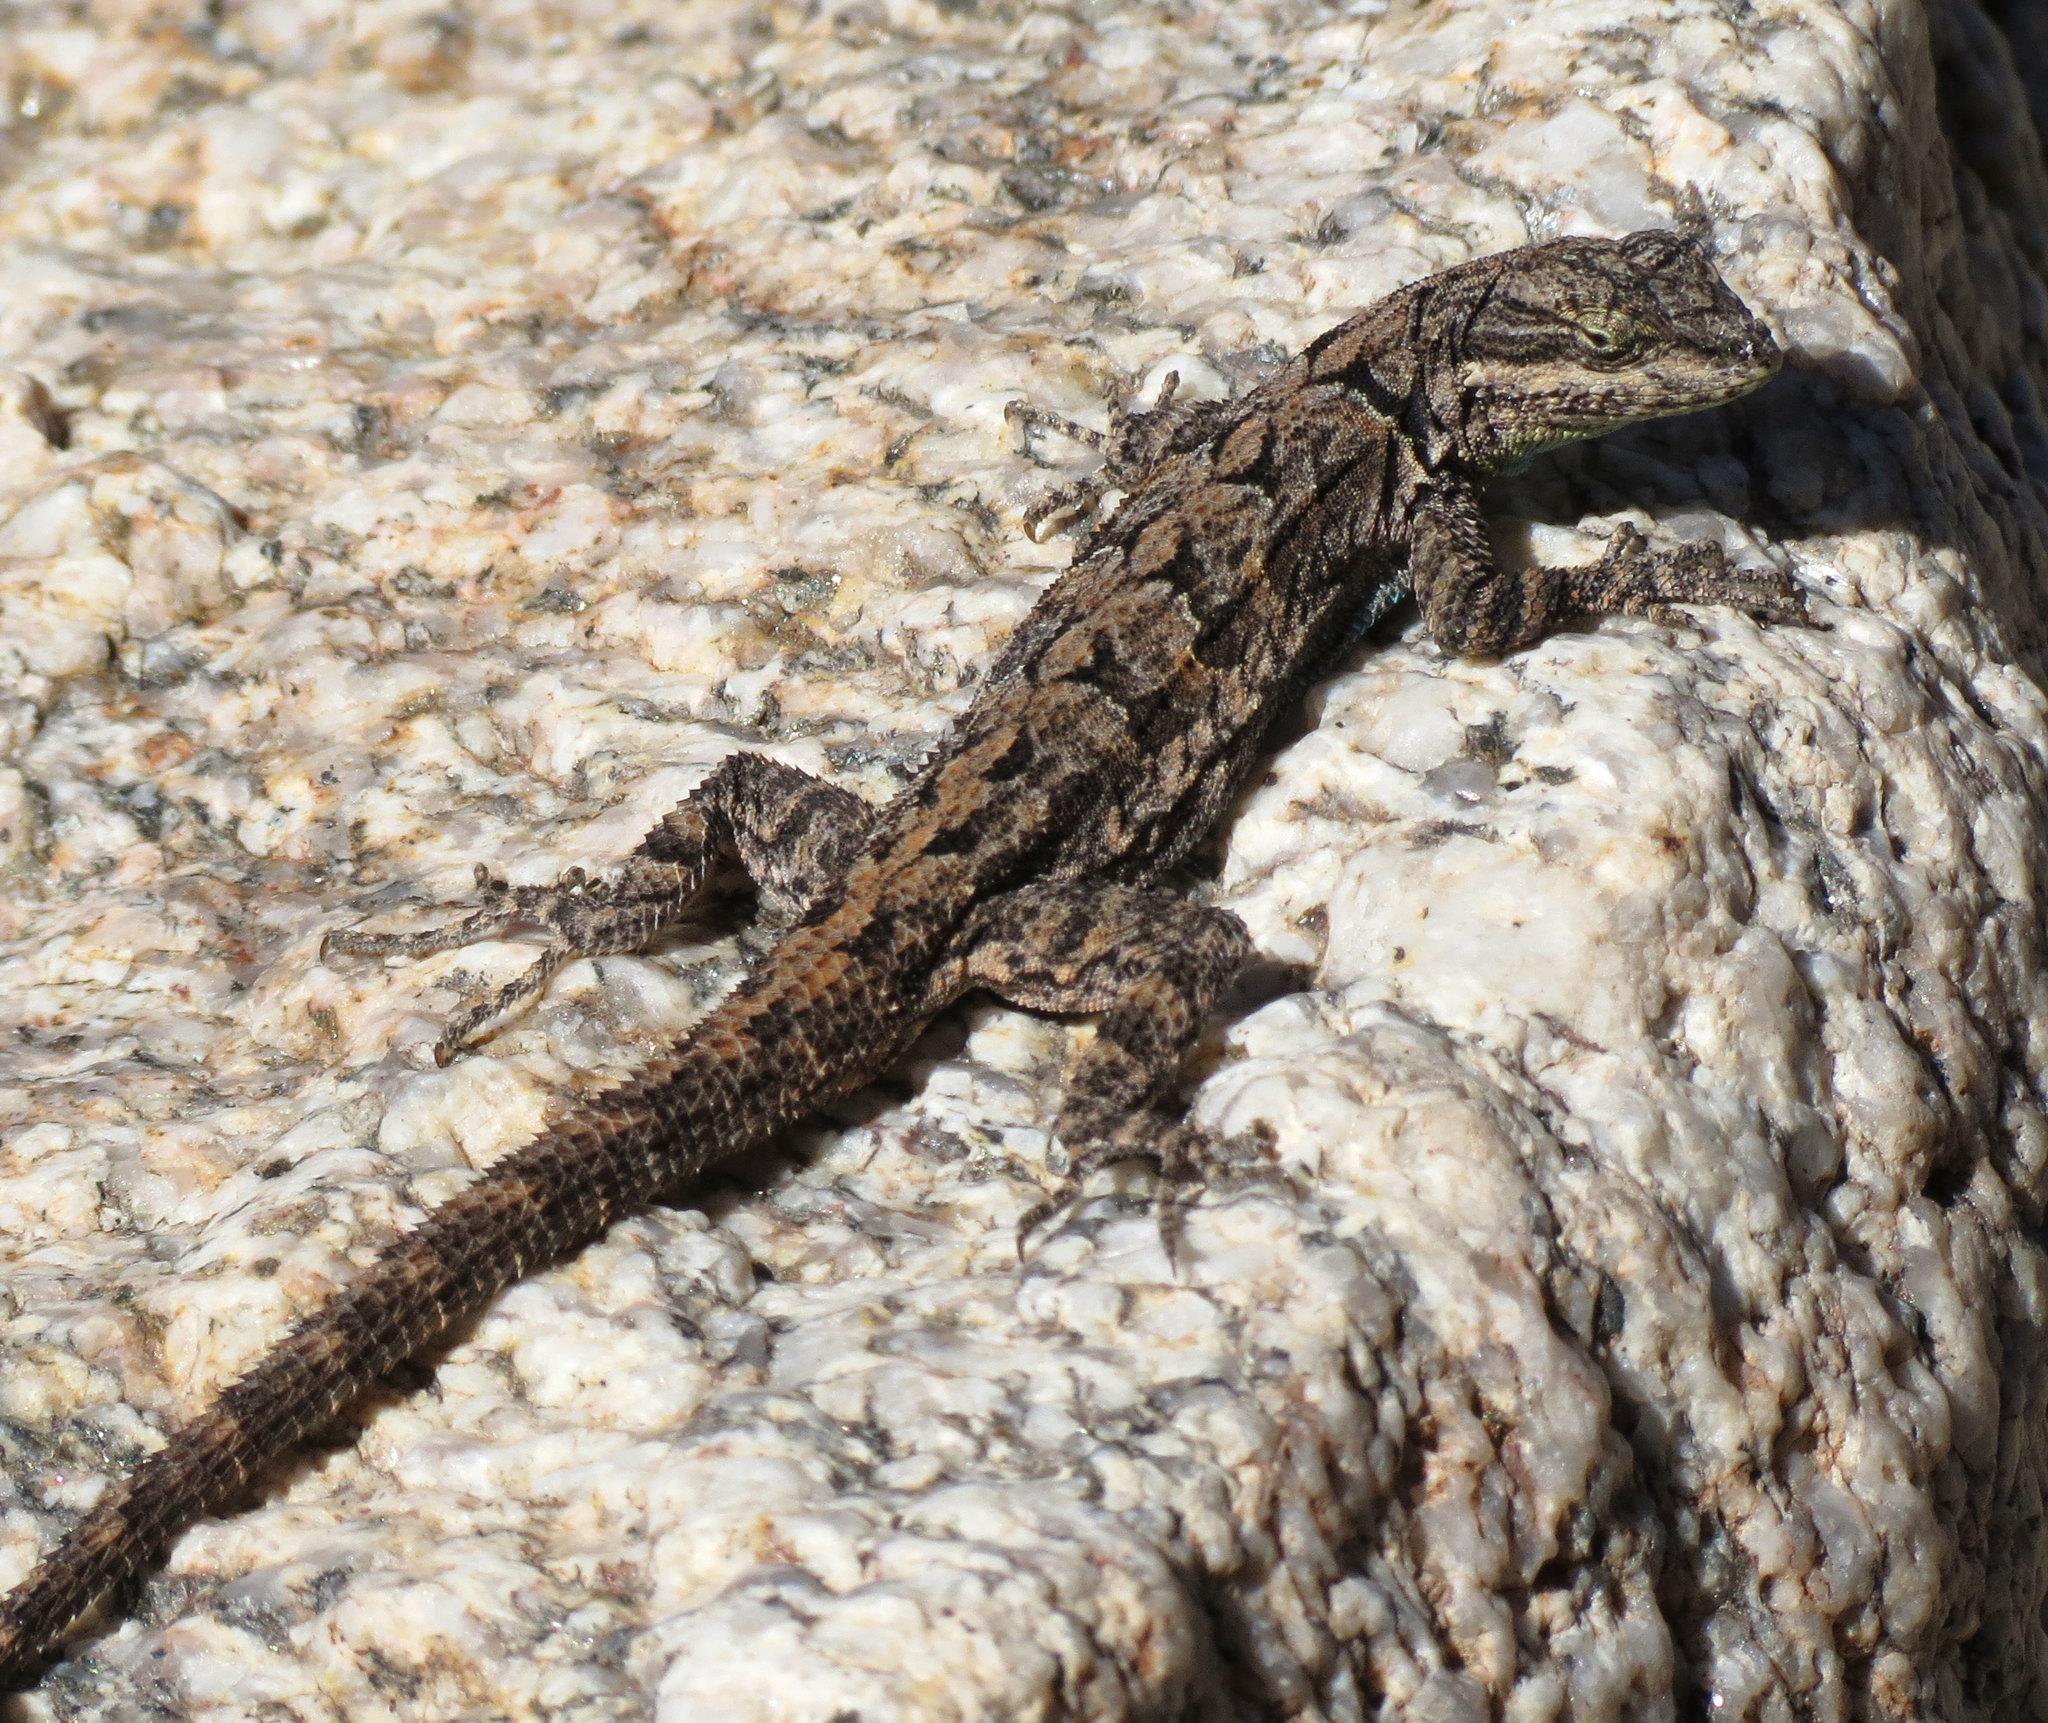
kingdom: Animalia
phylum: Chordata
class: Squamata
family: Phrynosomatidae
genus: Urosaurus
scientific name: Urosaurus ornatus
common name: Ornate tree lizard
